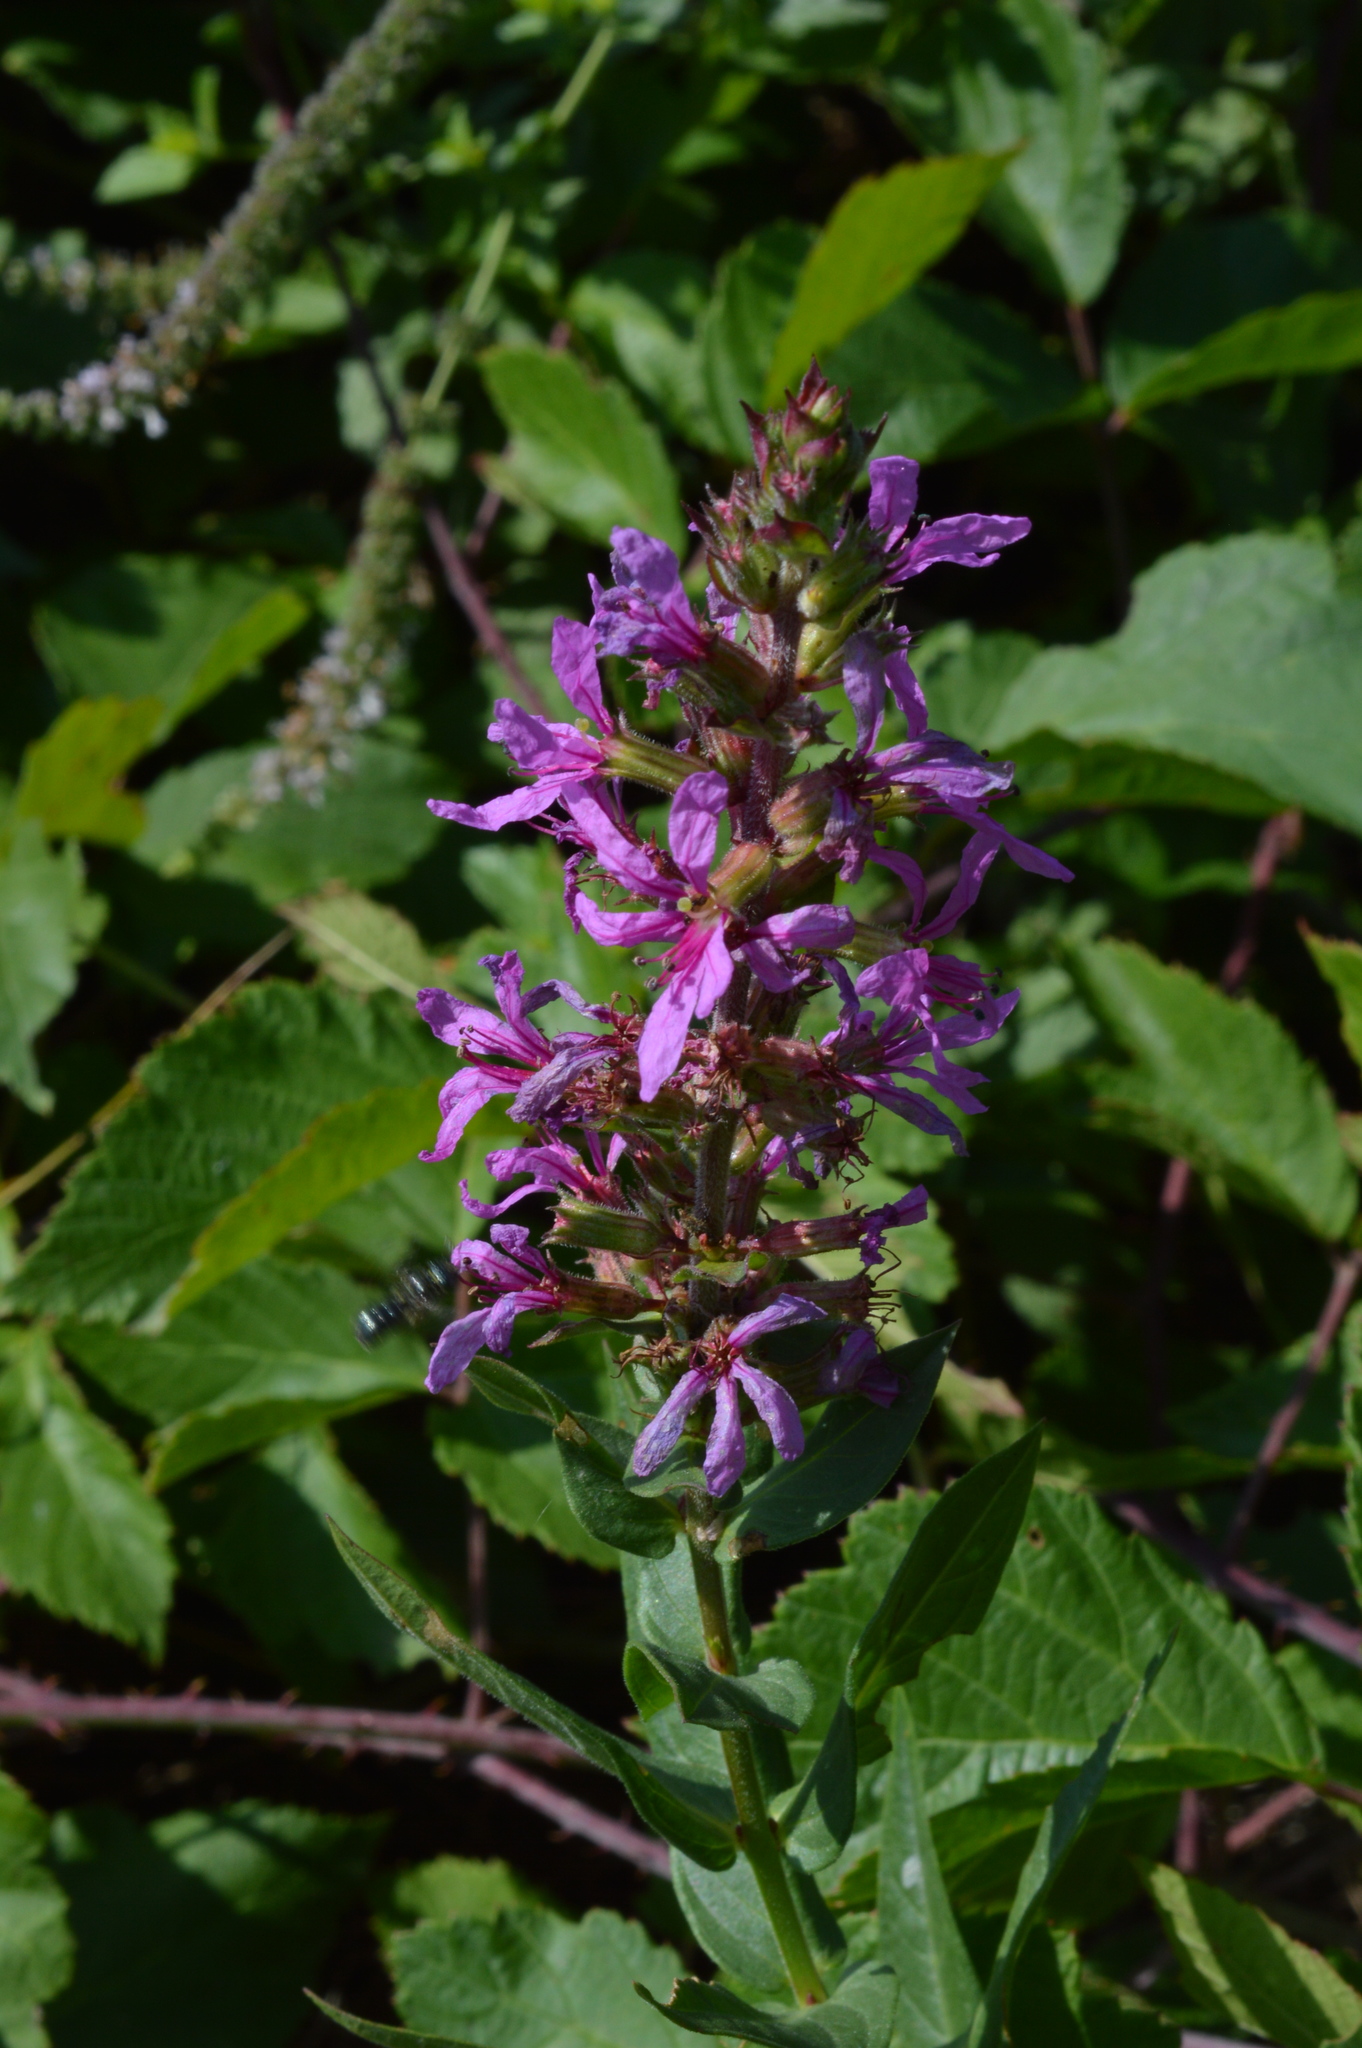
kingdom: Plantae
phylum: Tracheophyta
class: Magnoliopsida
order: Myrtales
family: Lythraceae
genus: Lythrum
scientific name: Lythrum salicaria
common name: Purple loosestrife
